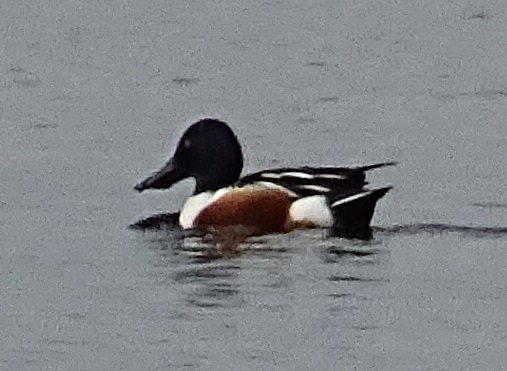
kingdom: Animalia
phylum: Chordata
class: Aves
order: Anseriformes
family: Anatidae
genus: Spatula
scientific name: Spatula clypeata
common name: Northern shoveler
